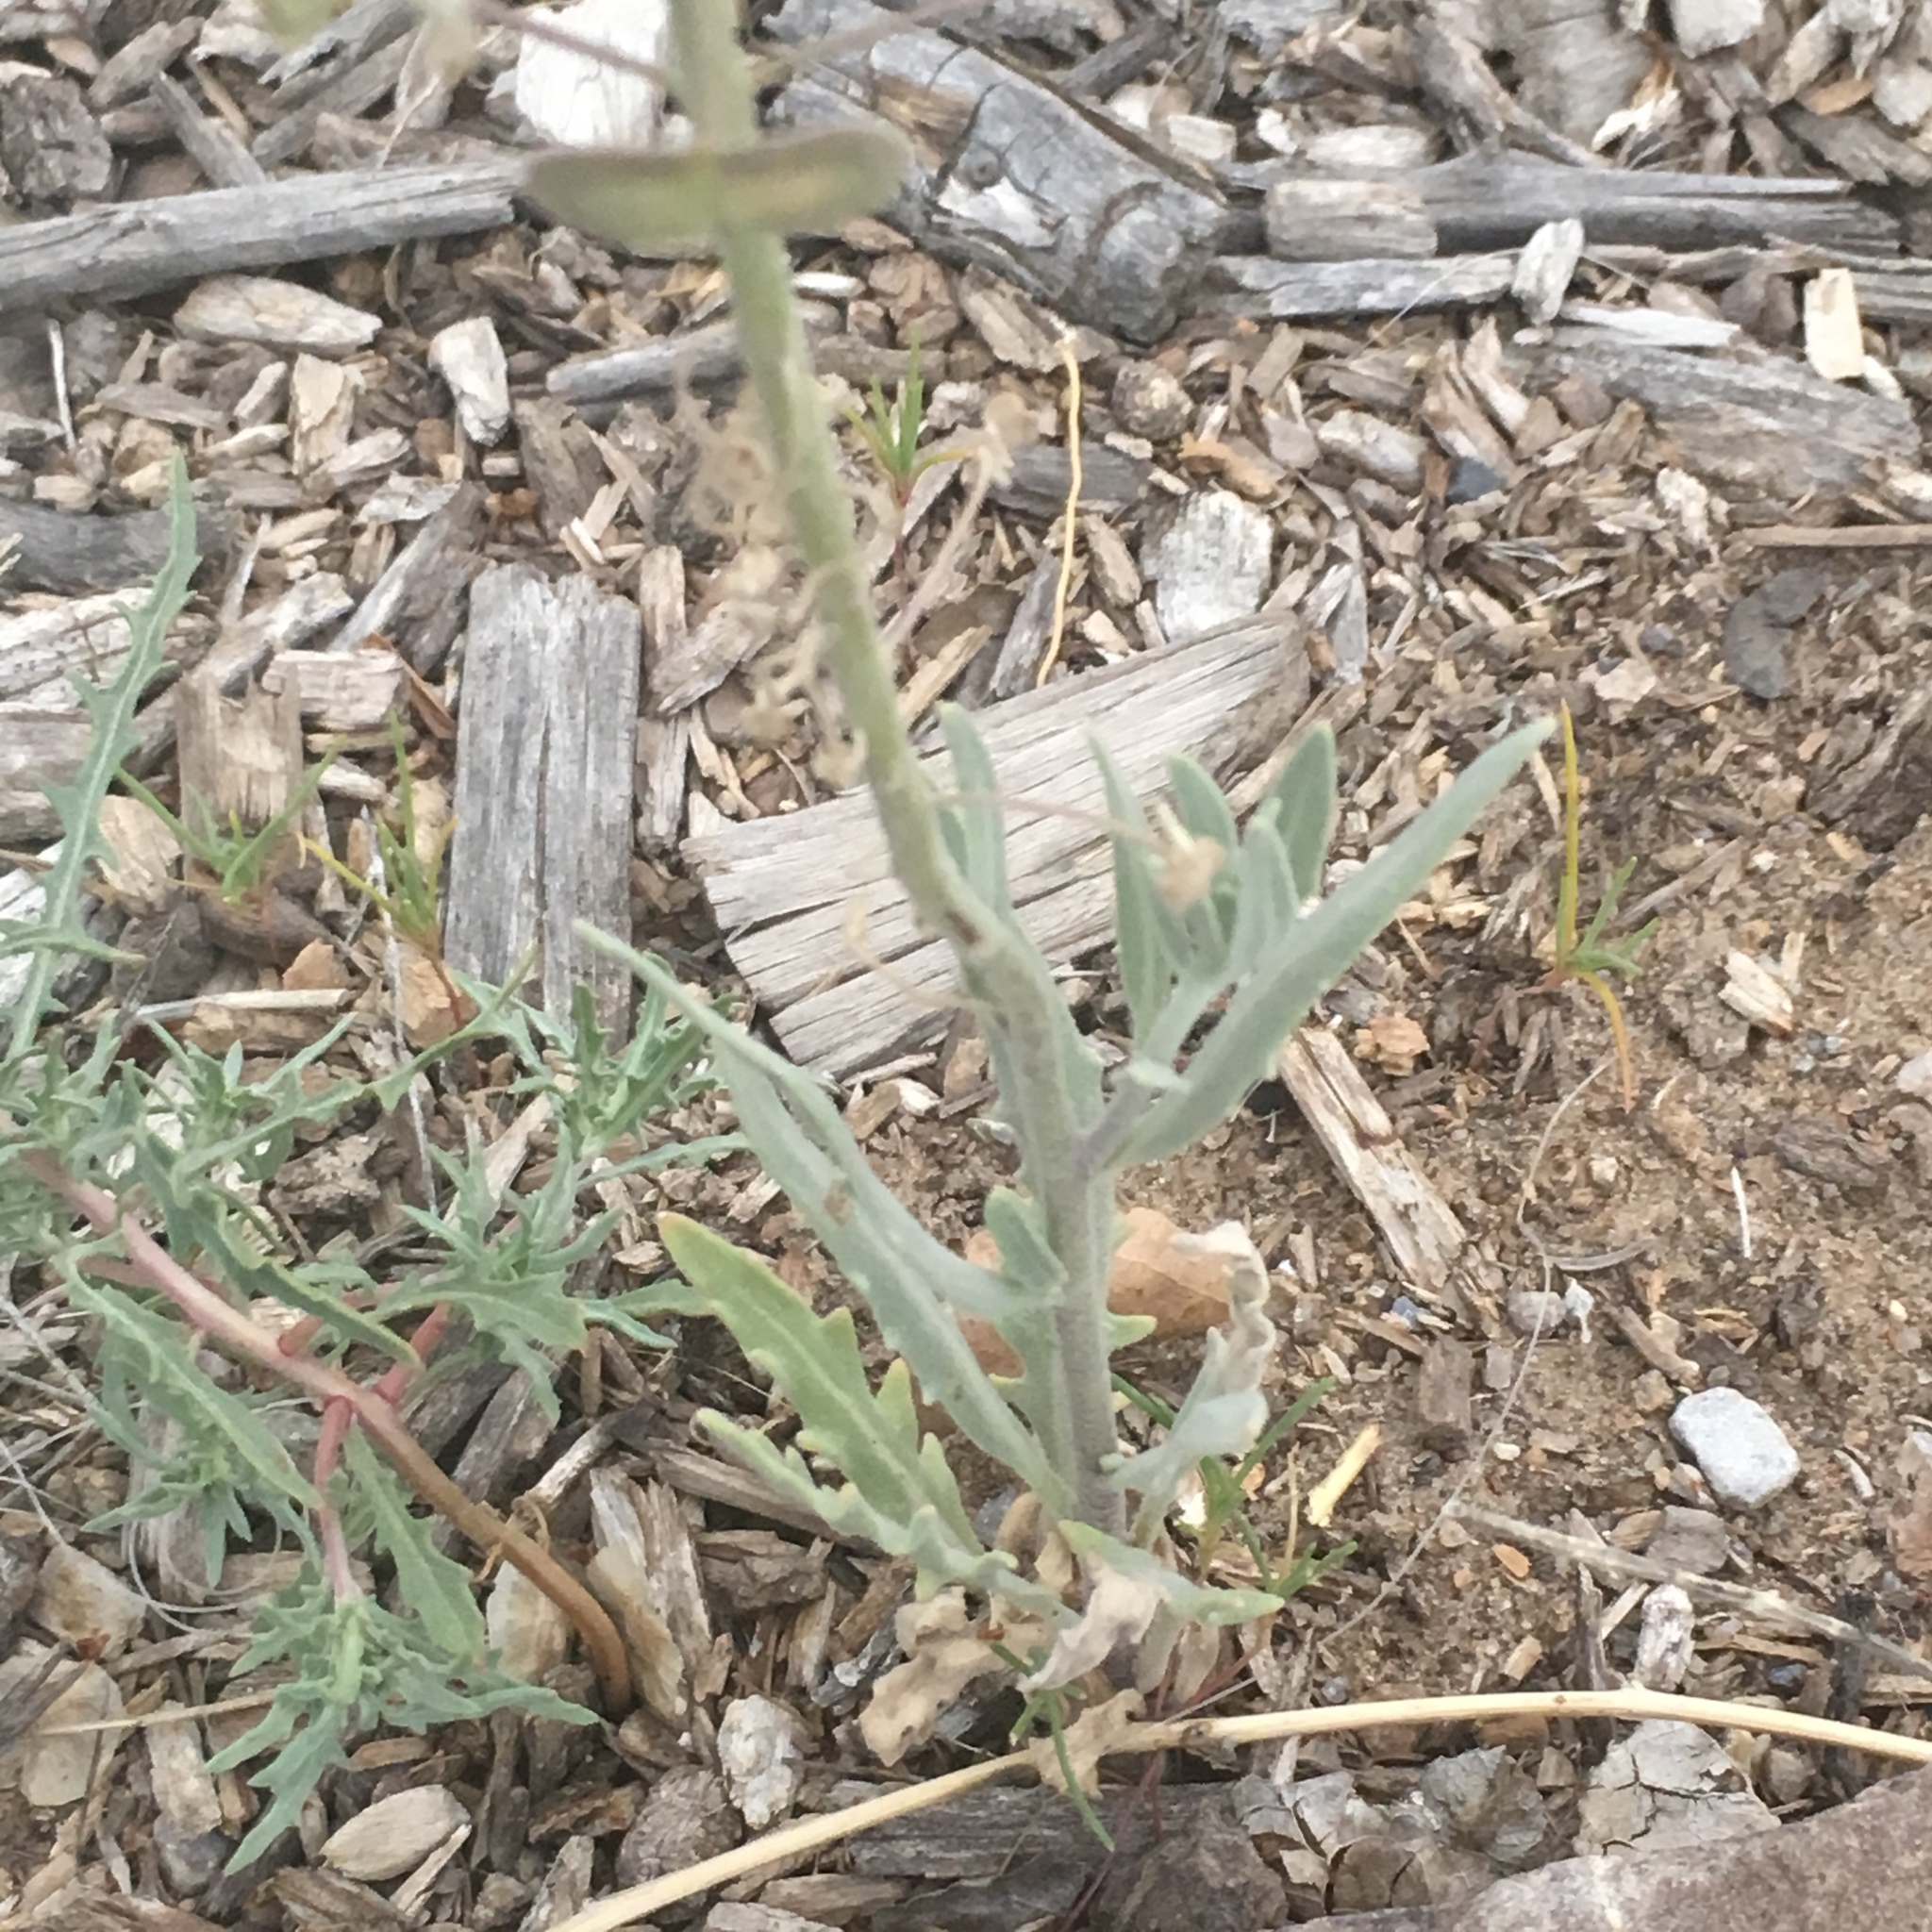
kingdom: Plantae
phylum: Tracheophyta
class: Magnoliopsida
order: Brassicales
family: Brassicaceae
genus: Dimorphocarpa
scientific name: Dimorphocarpa wislizenii
